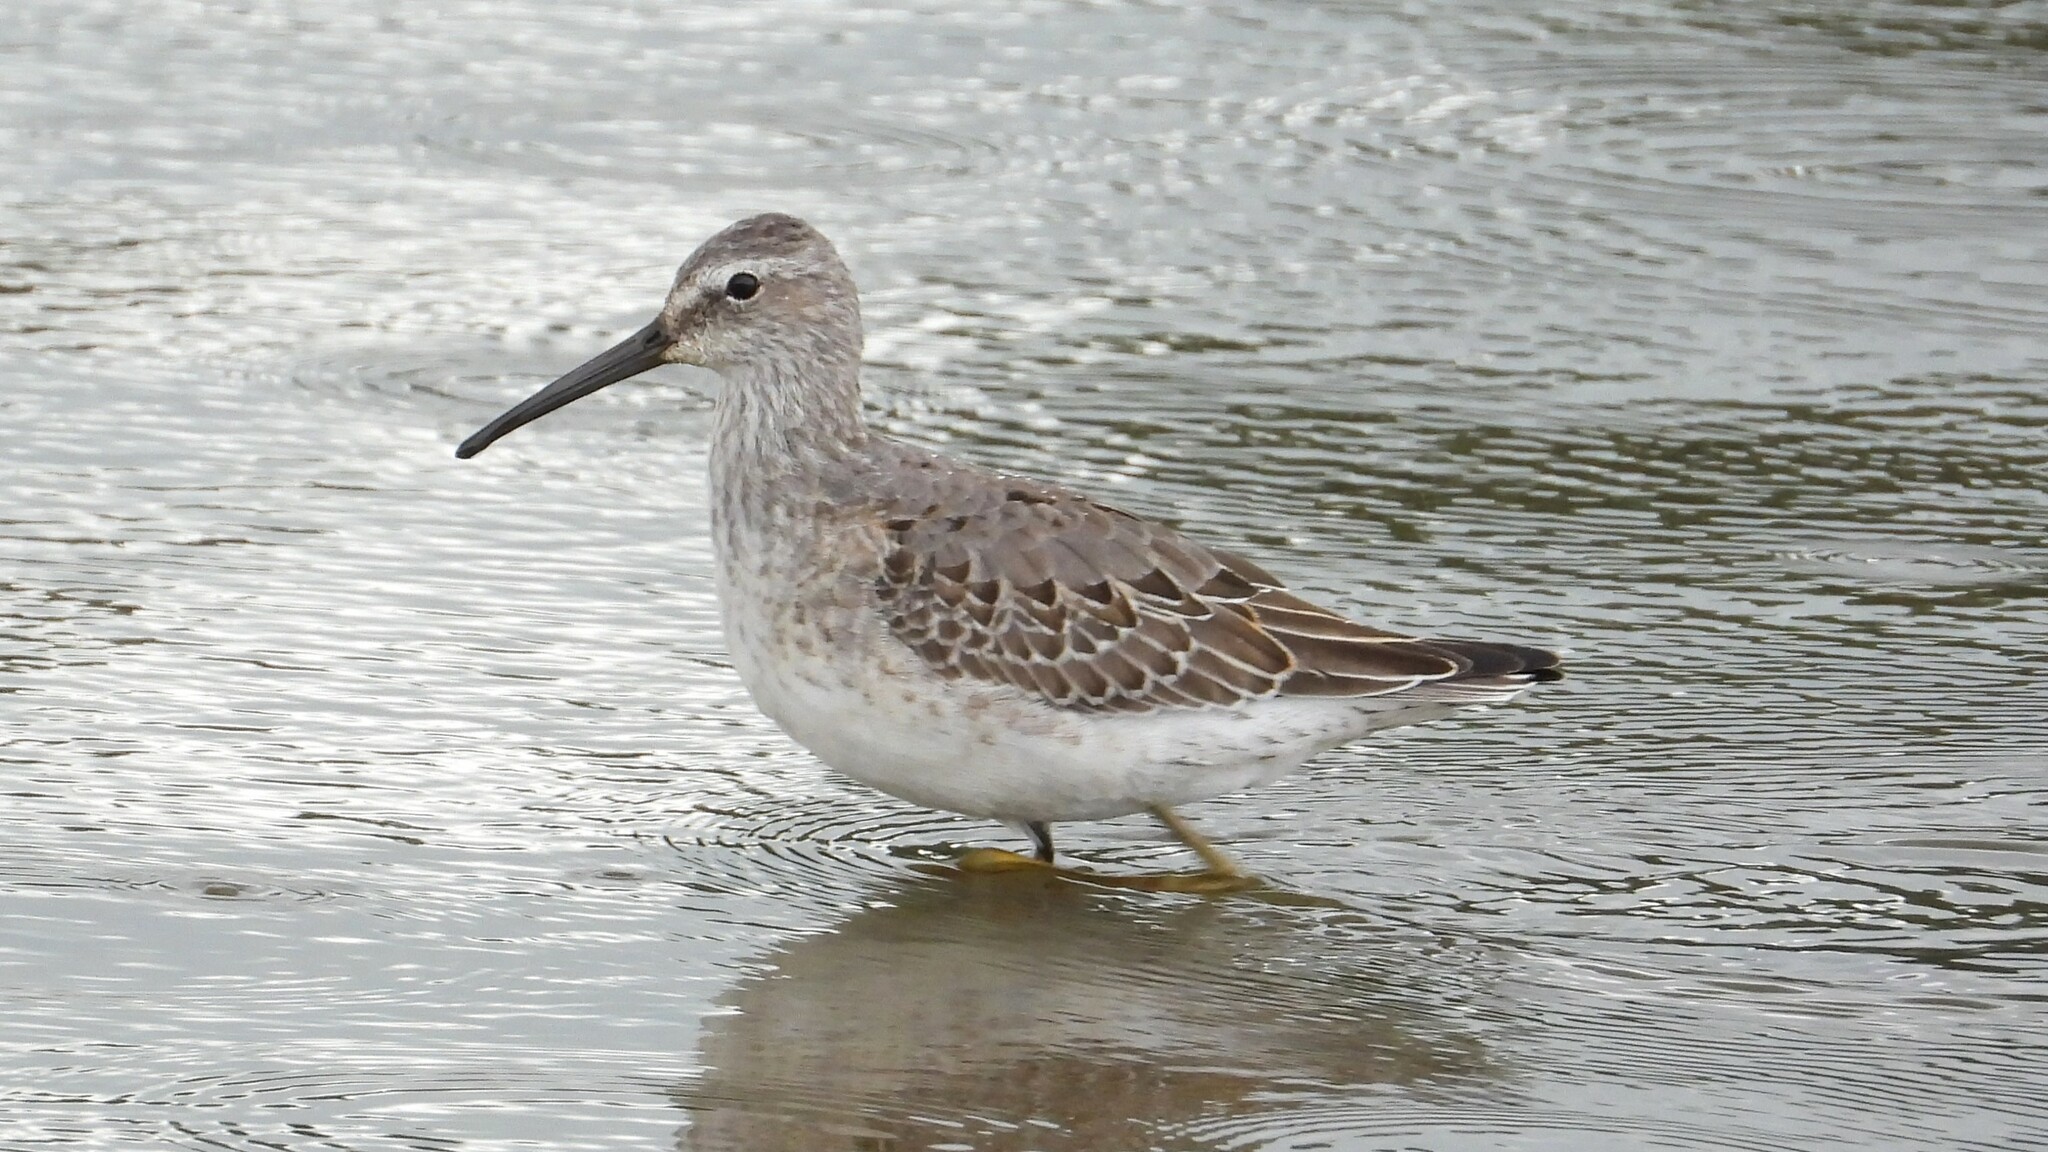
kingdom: Animalia
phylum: Chordata
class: Aves
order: Charadriiformes
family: Scolopacidae
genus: Calidris
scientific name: Calidris himantopus
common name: Stilt sandpiper
